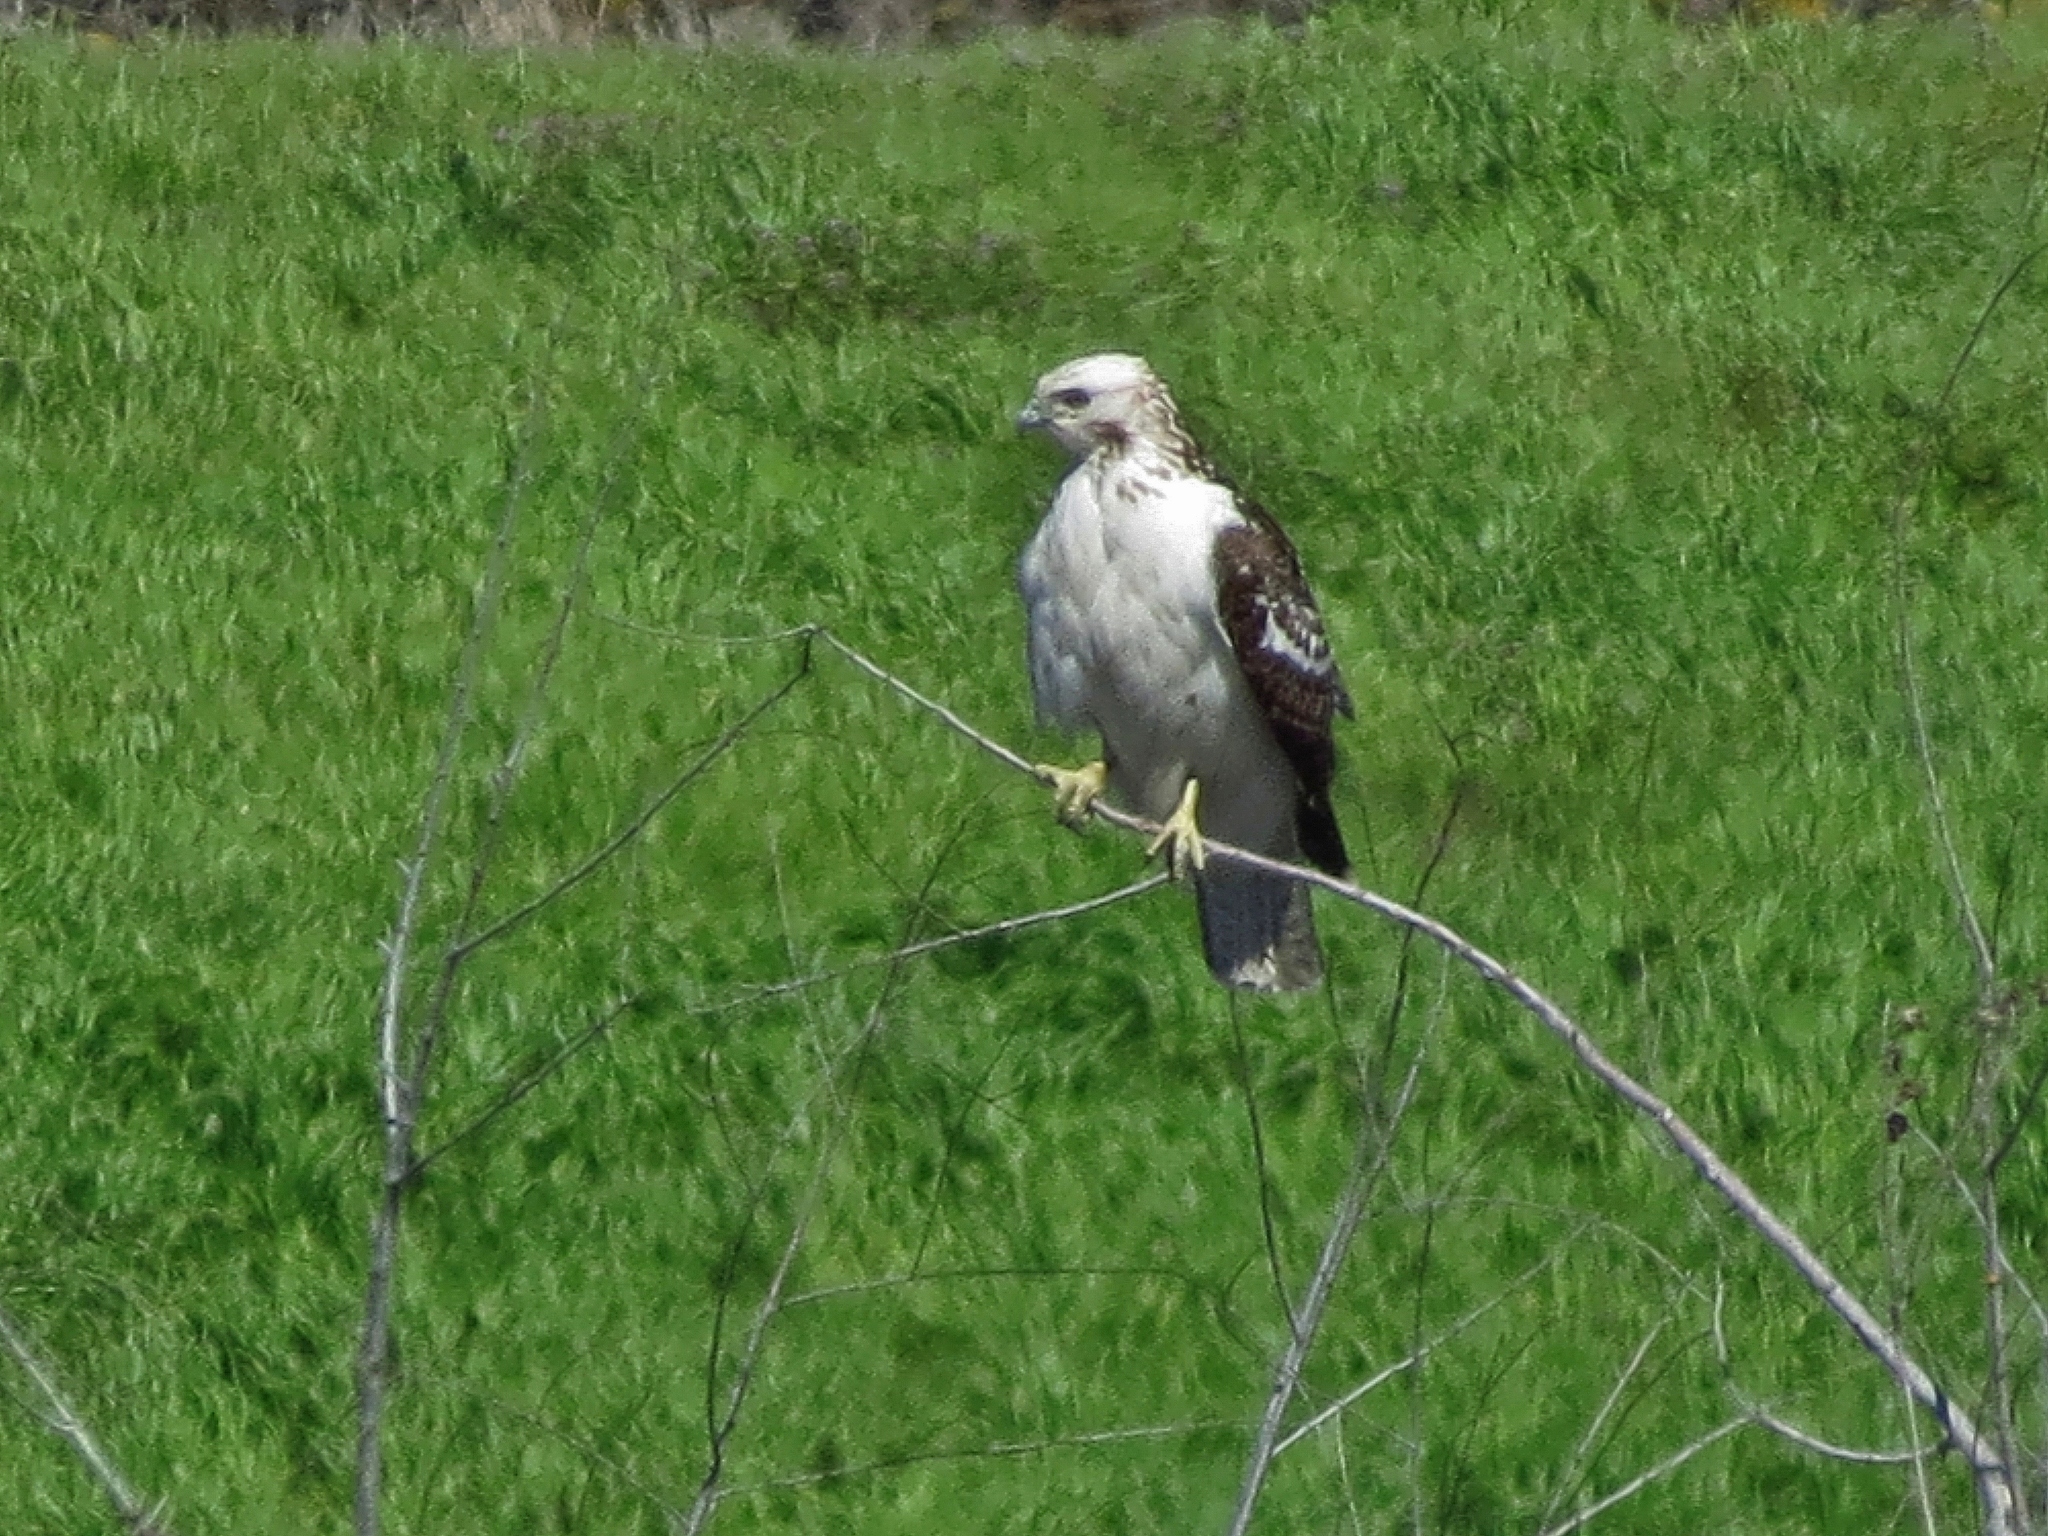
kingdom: Animalia
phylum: Chordata
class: Aves
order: Accipitriformes
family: Accipitridae
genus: Buteo
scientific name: Buteo jamaicensis
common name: Red-tailed hawk
